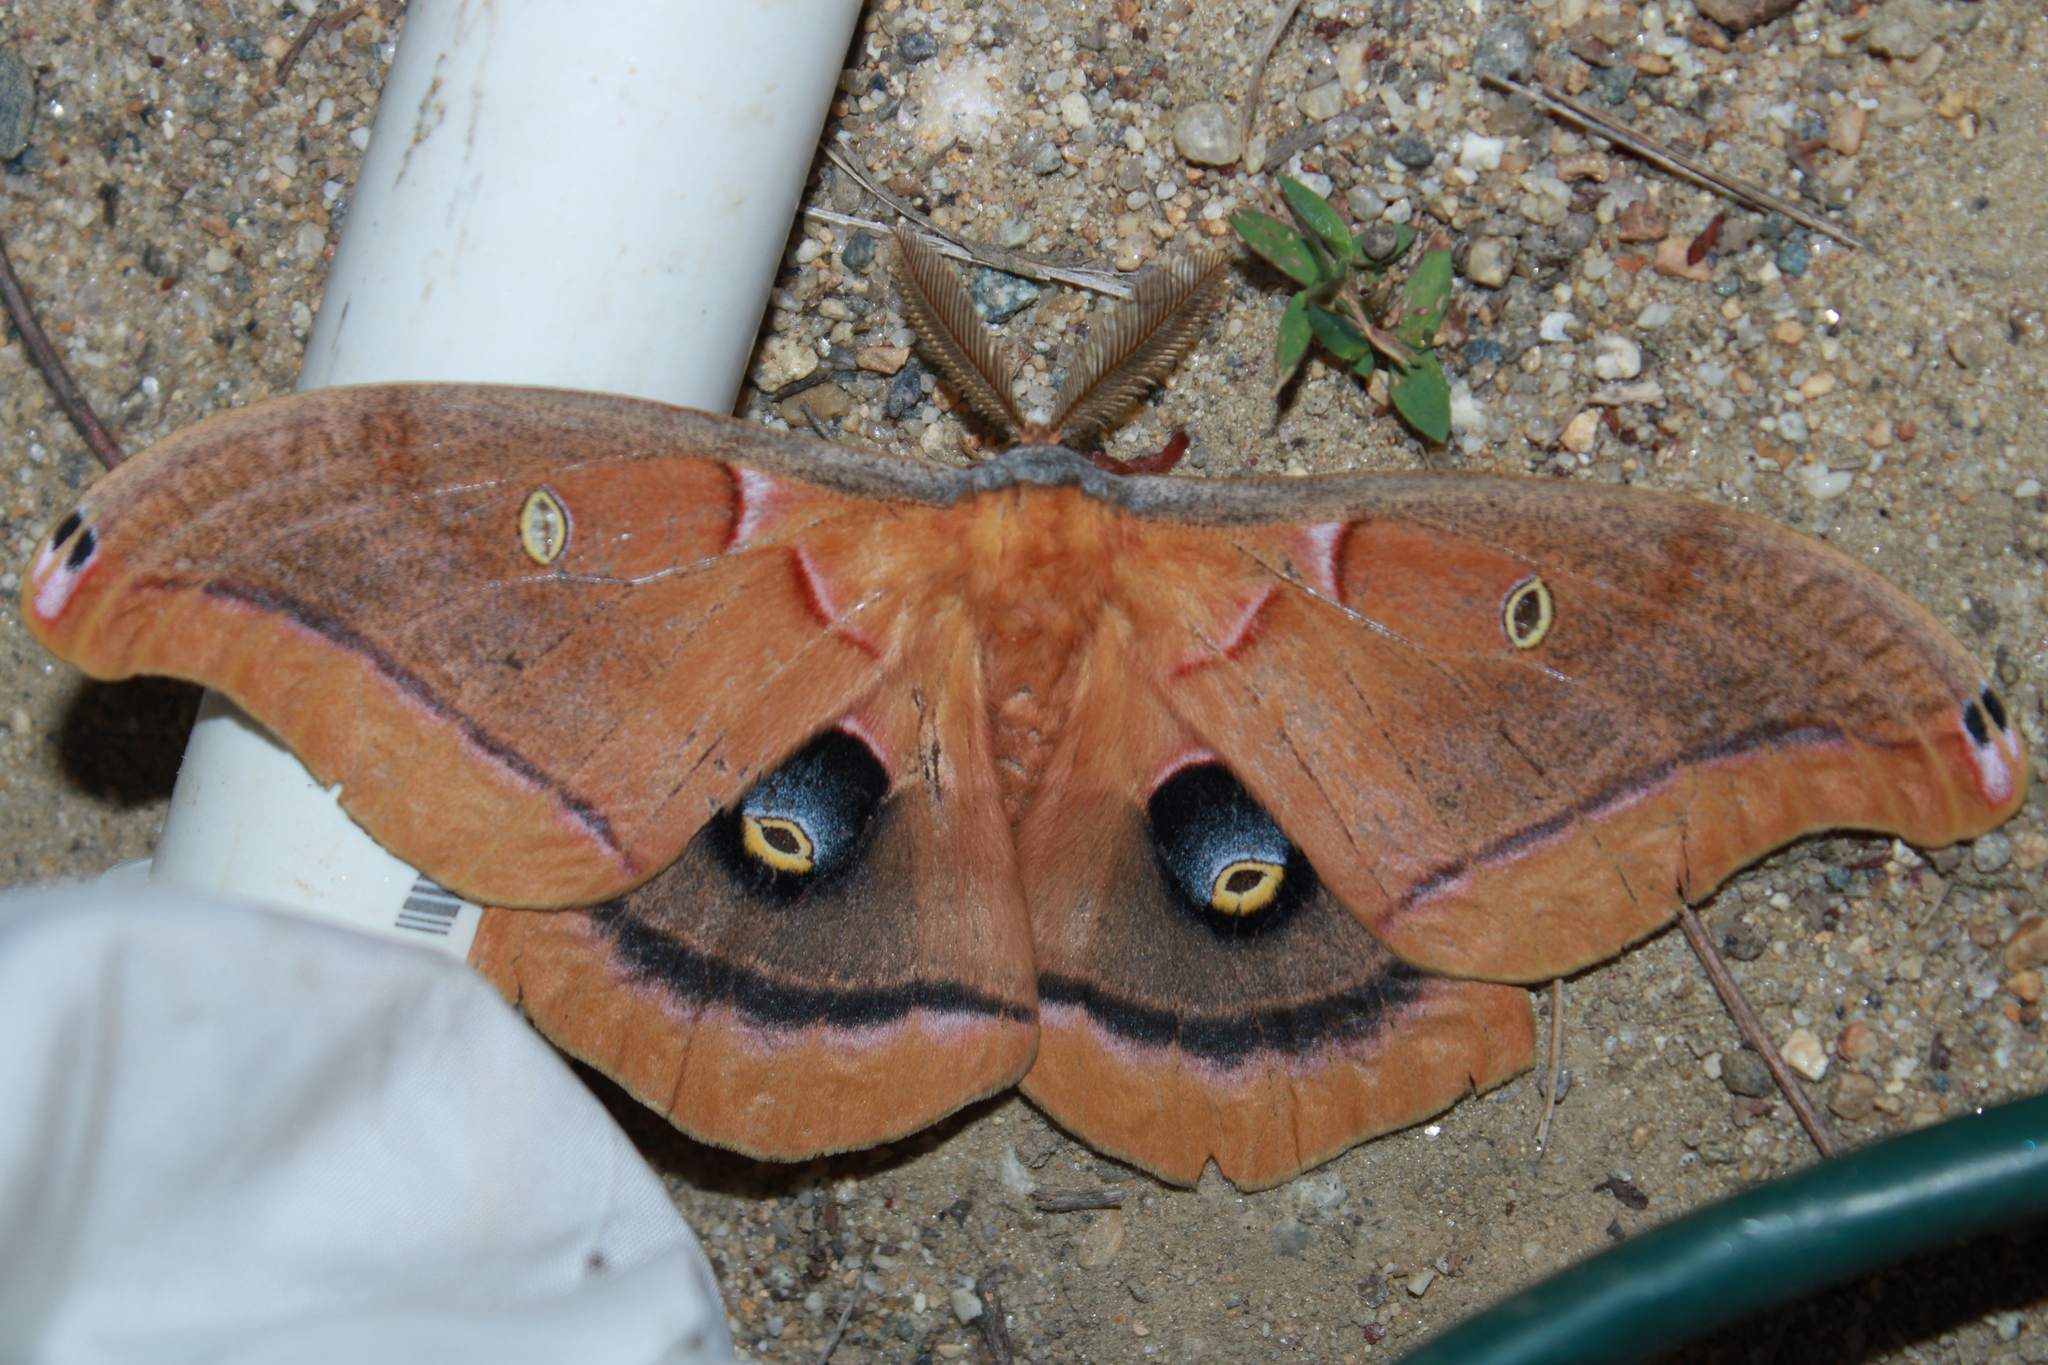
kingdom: Animalia
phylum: Arthropoda
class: Insecta
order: Lepidoptera
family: Saturniidae
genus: Antheraea
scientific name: Antheraea polyphemus
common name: Polyphemus moth
